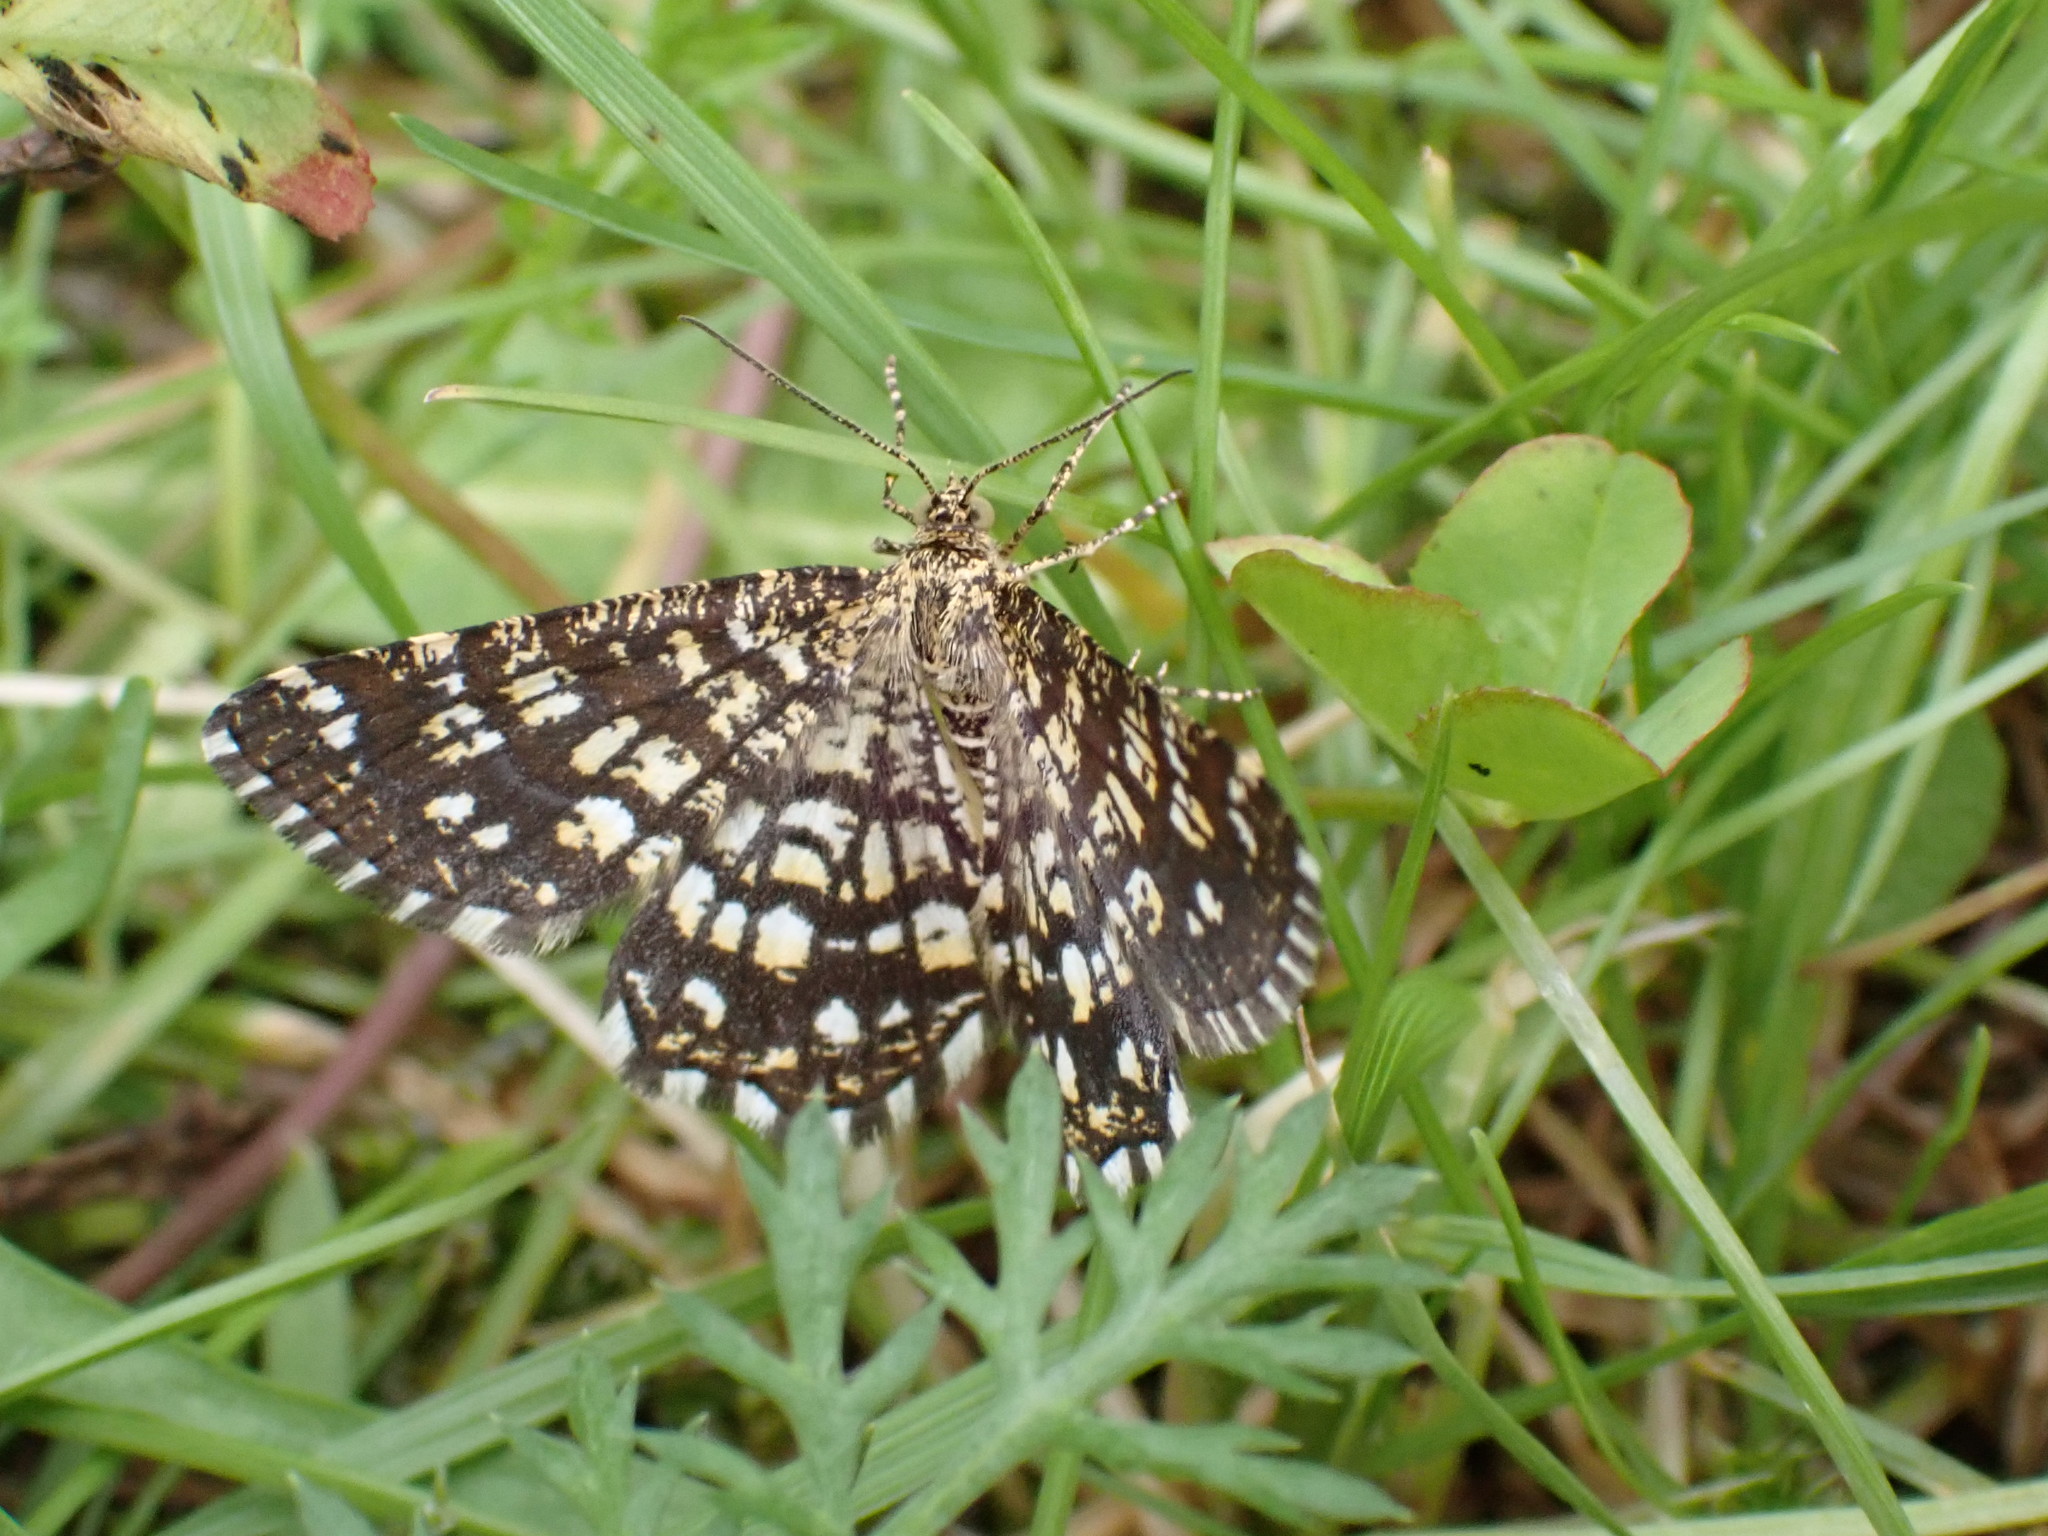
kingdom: Animalia
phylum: Arthropoda
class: Insecta
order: Lepidoptera
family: Geometridae
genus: Chiasmia
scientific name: Chiasmia clathrata
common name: Latticed heath
